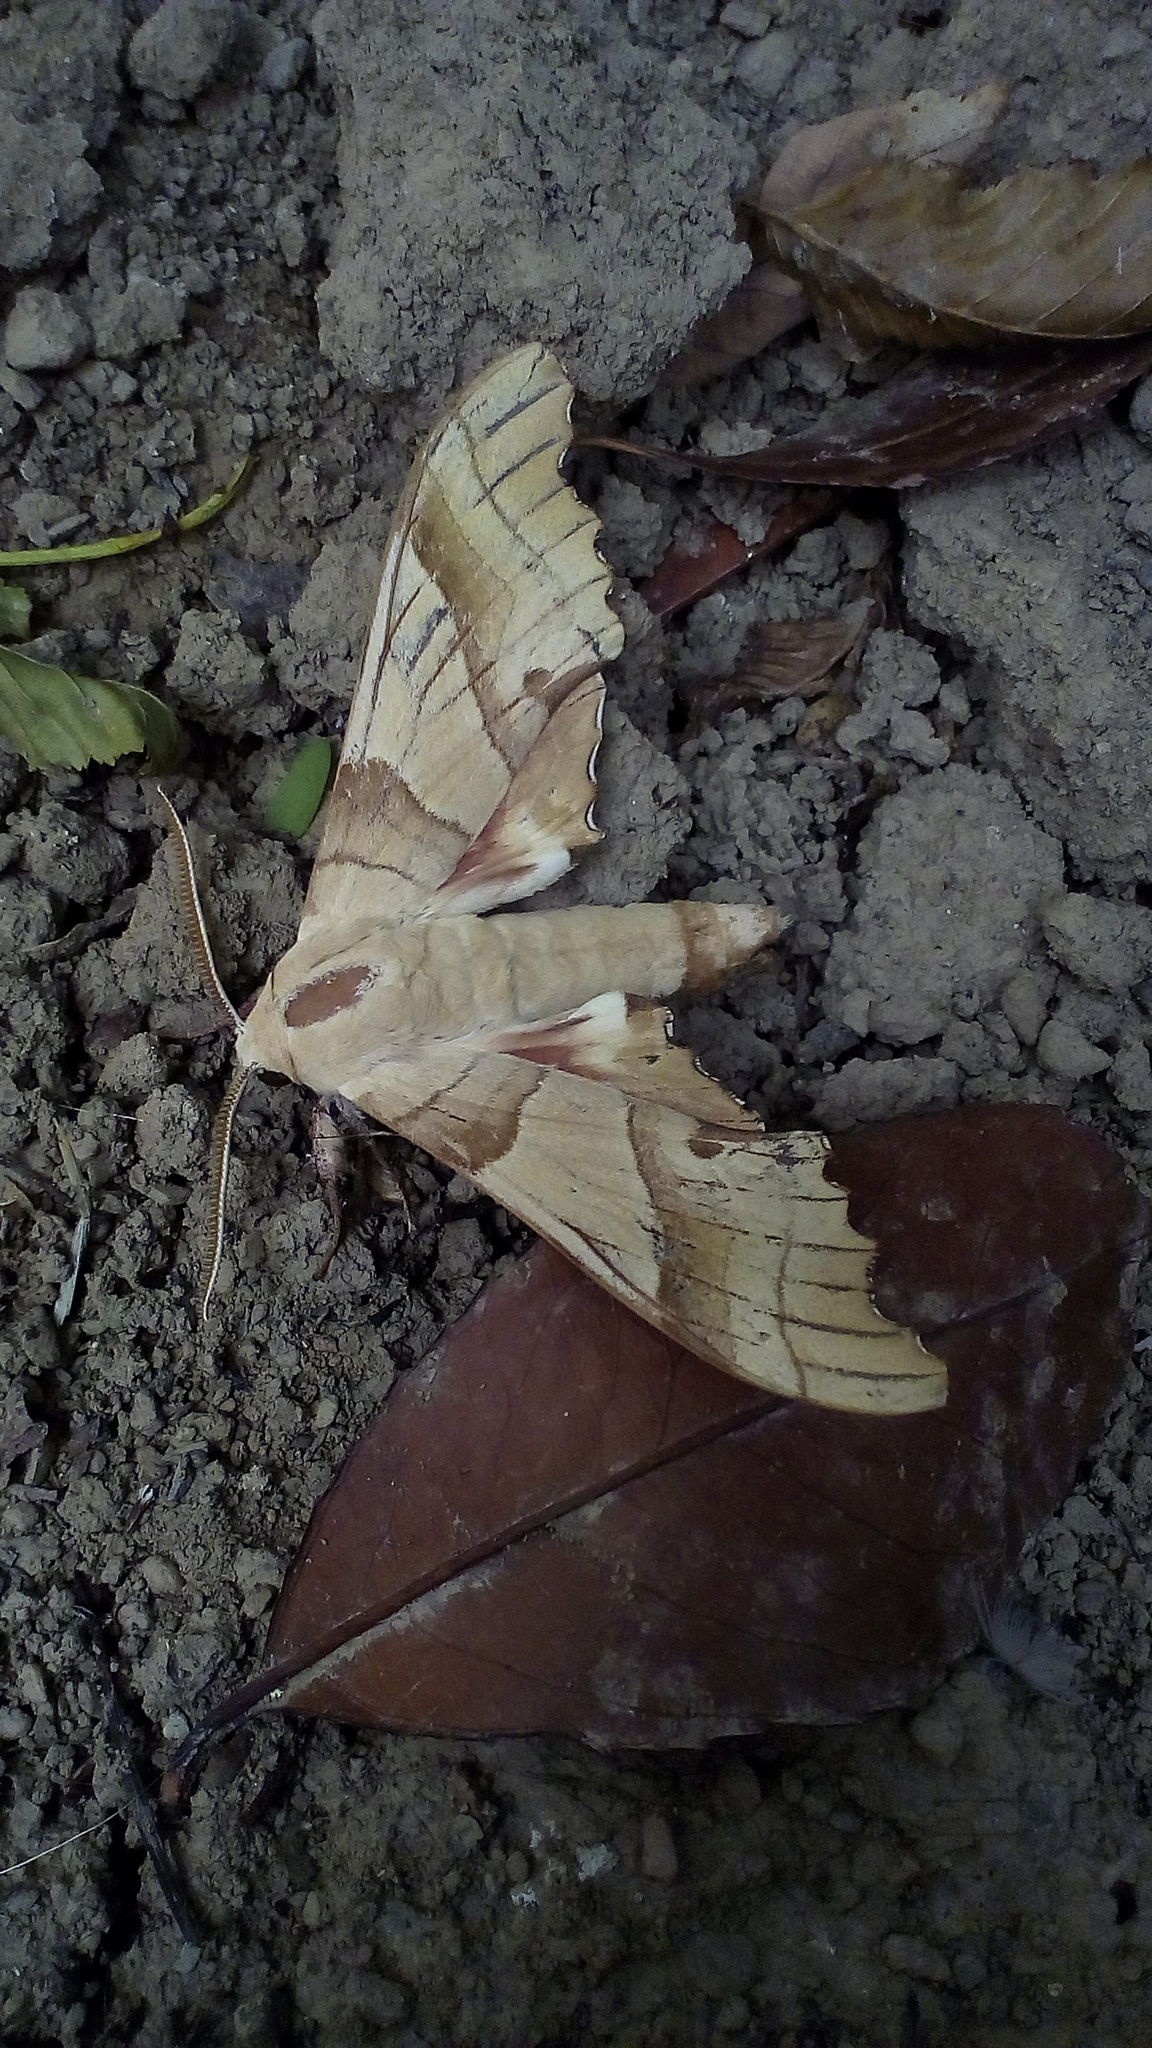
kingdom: Animalia
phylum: Arthropoda
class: Insecta
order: Lepidoptera
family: Sphingidae
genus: Marumba
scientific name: Marumba quercus
